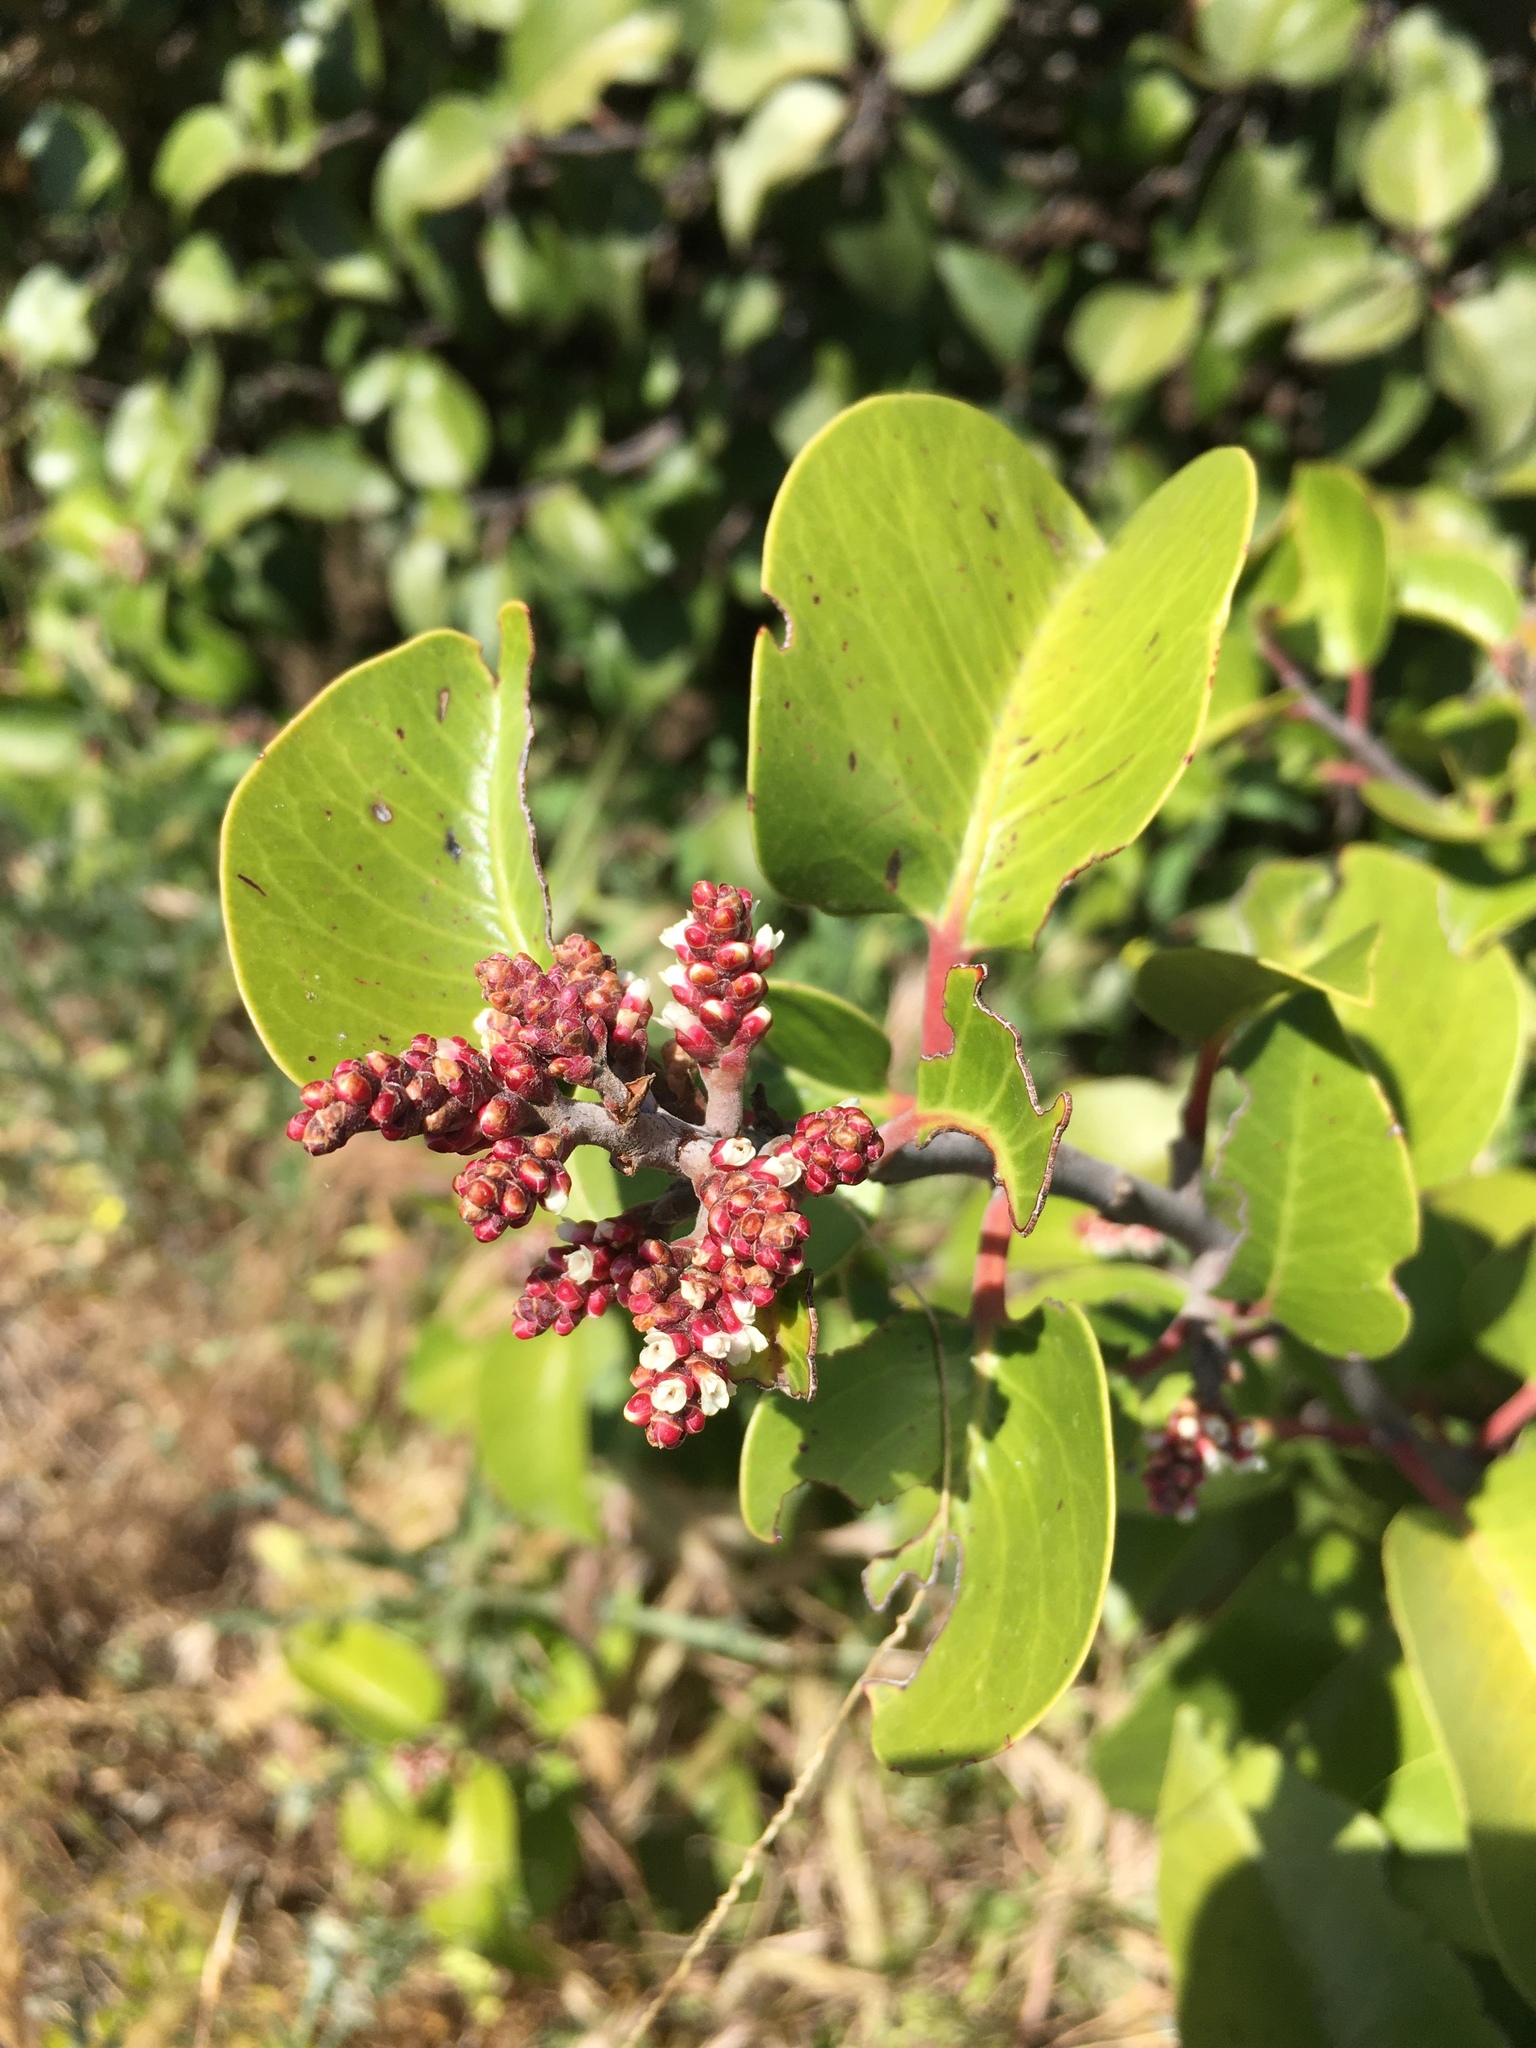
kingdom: Plantae
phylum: Tracheophyta
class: Magnoliopsida
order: Sapindales
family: Anacardiaceae
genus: Rhus
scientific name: Rhus ovata
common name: Sugar sumac
